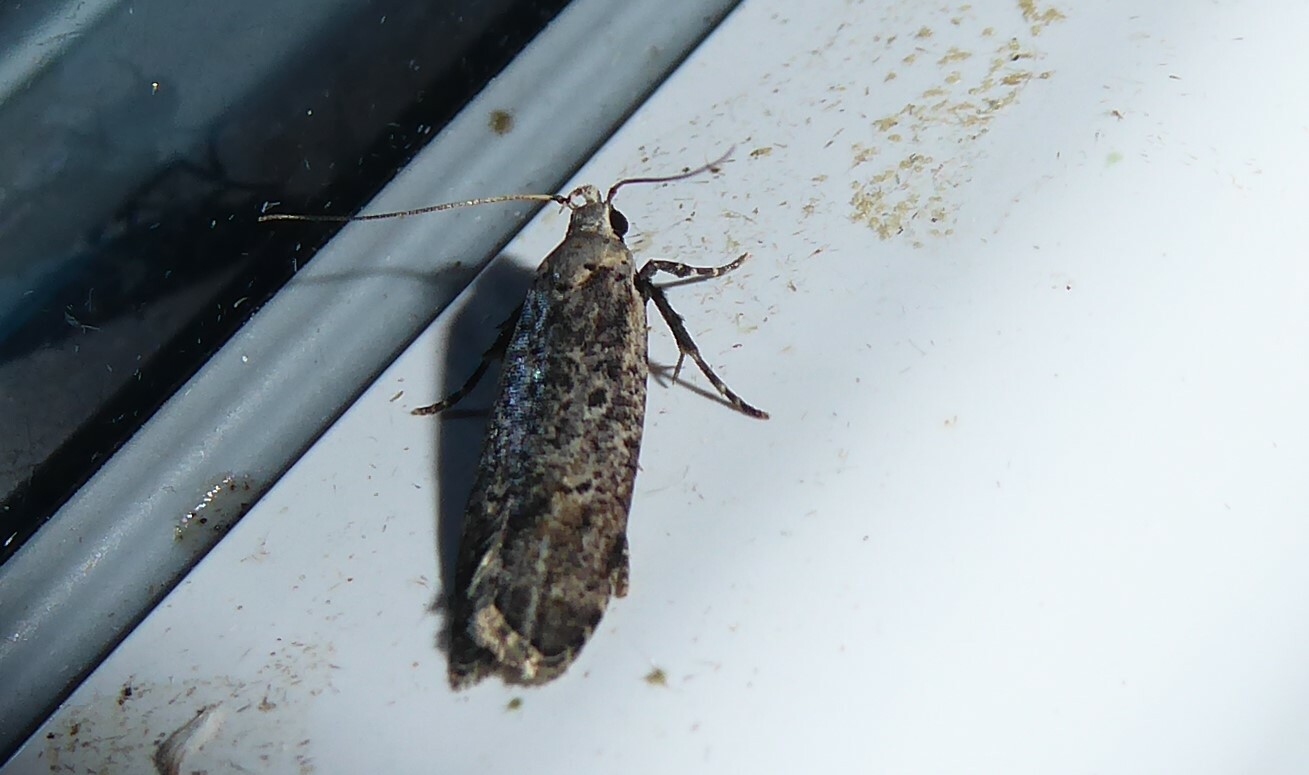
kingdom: Animalia
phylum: Arthropoda
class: Insecta
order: Lepidoptera
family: Gelechiidae
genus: Anisoplaca
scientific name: Anisoplaca achyrota
